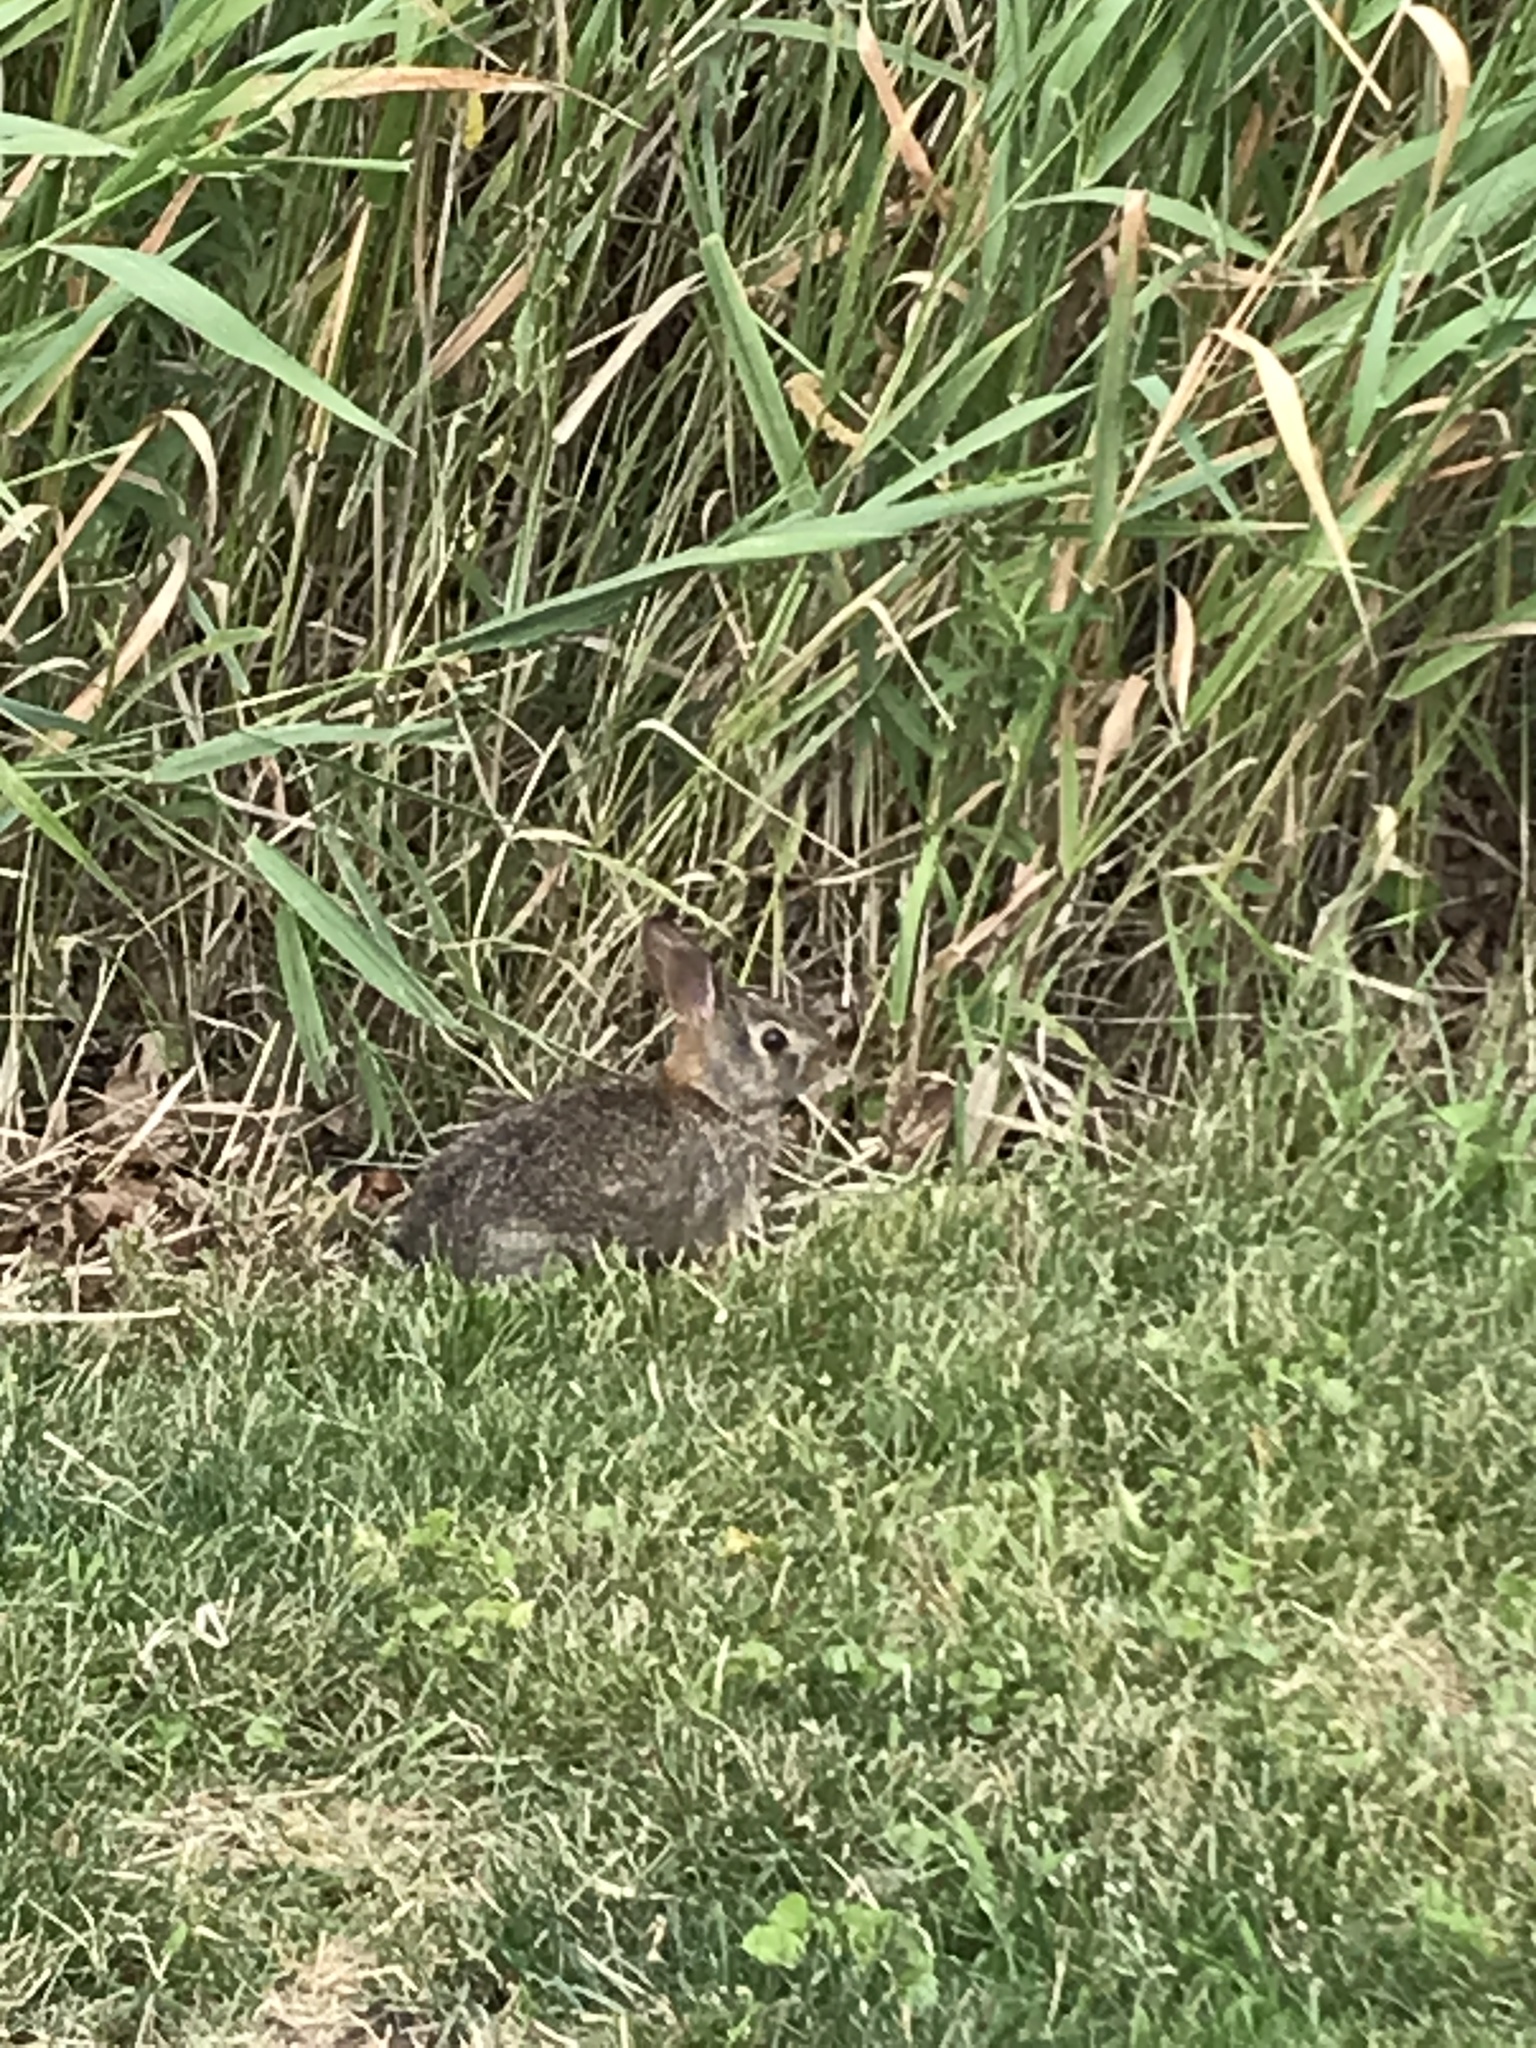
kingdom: Animalia
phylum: Chordata
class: Mammalia
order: Lagomorpha
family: Leporidae
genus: Sylvilagus
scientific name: Sylvilagus floridanus
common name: Eastern cottontail
